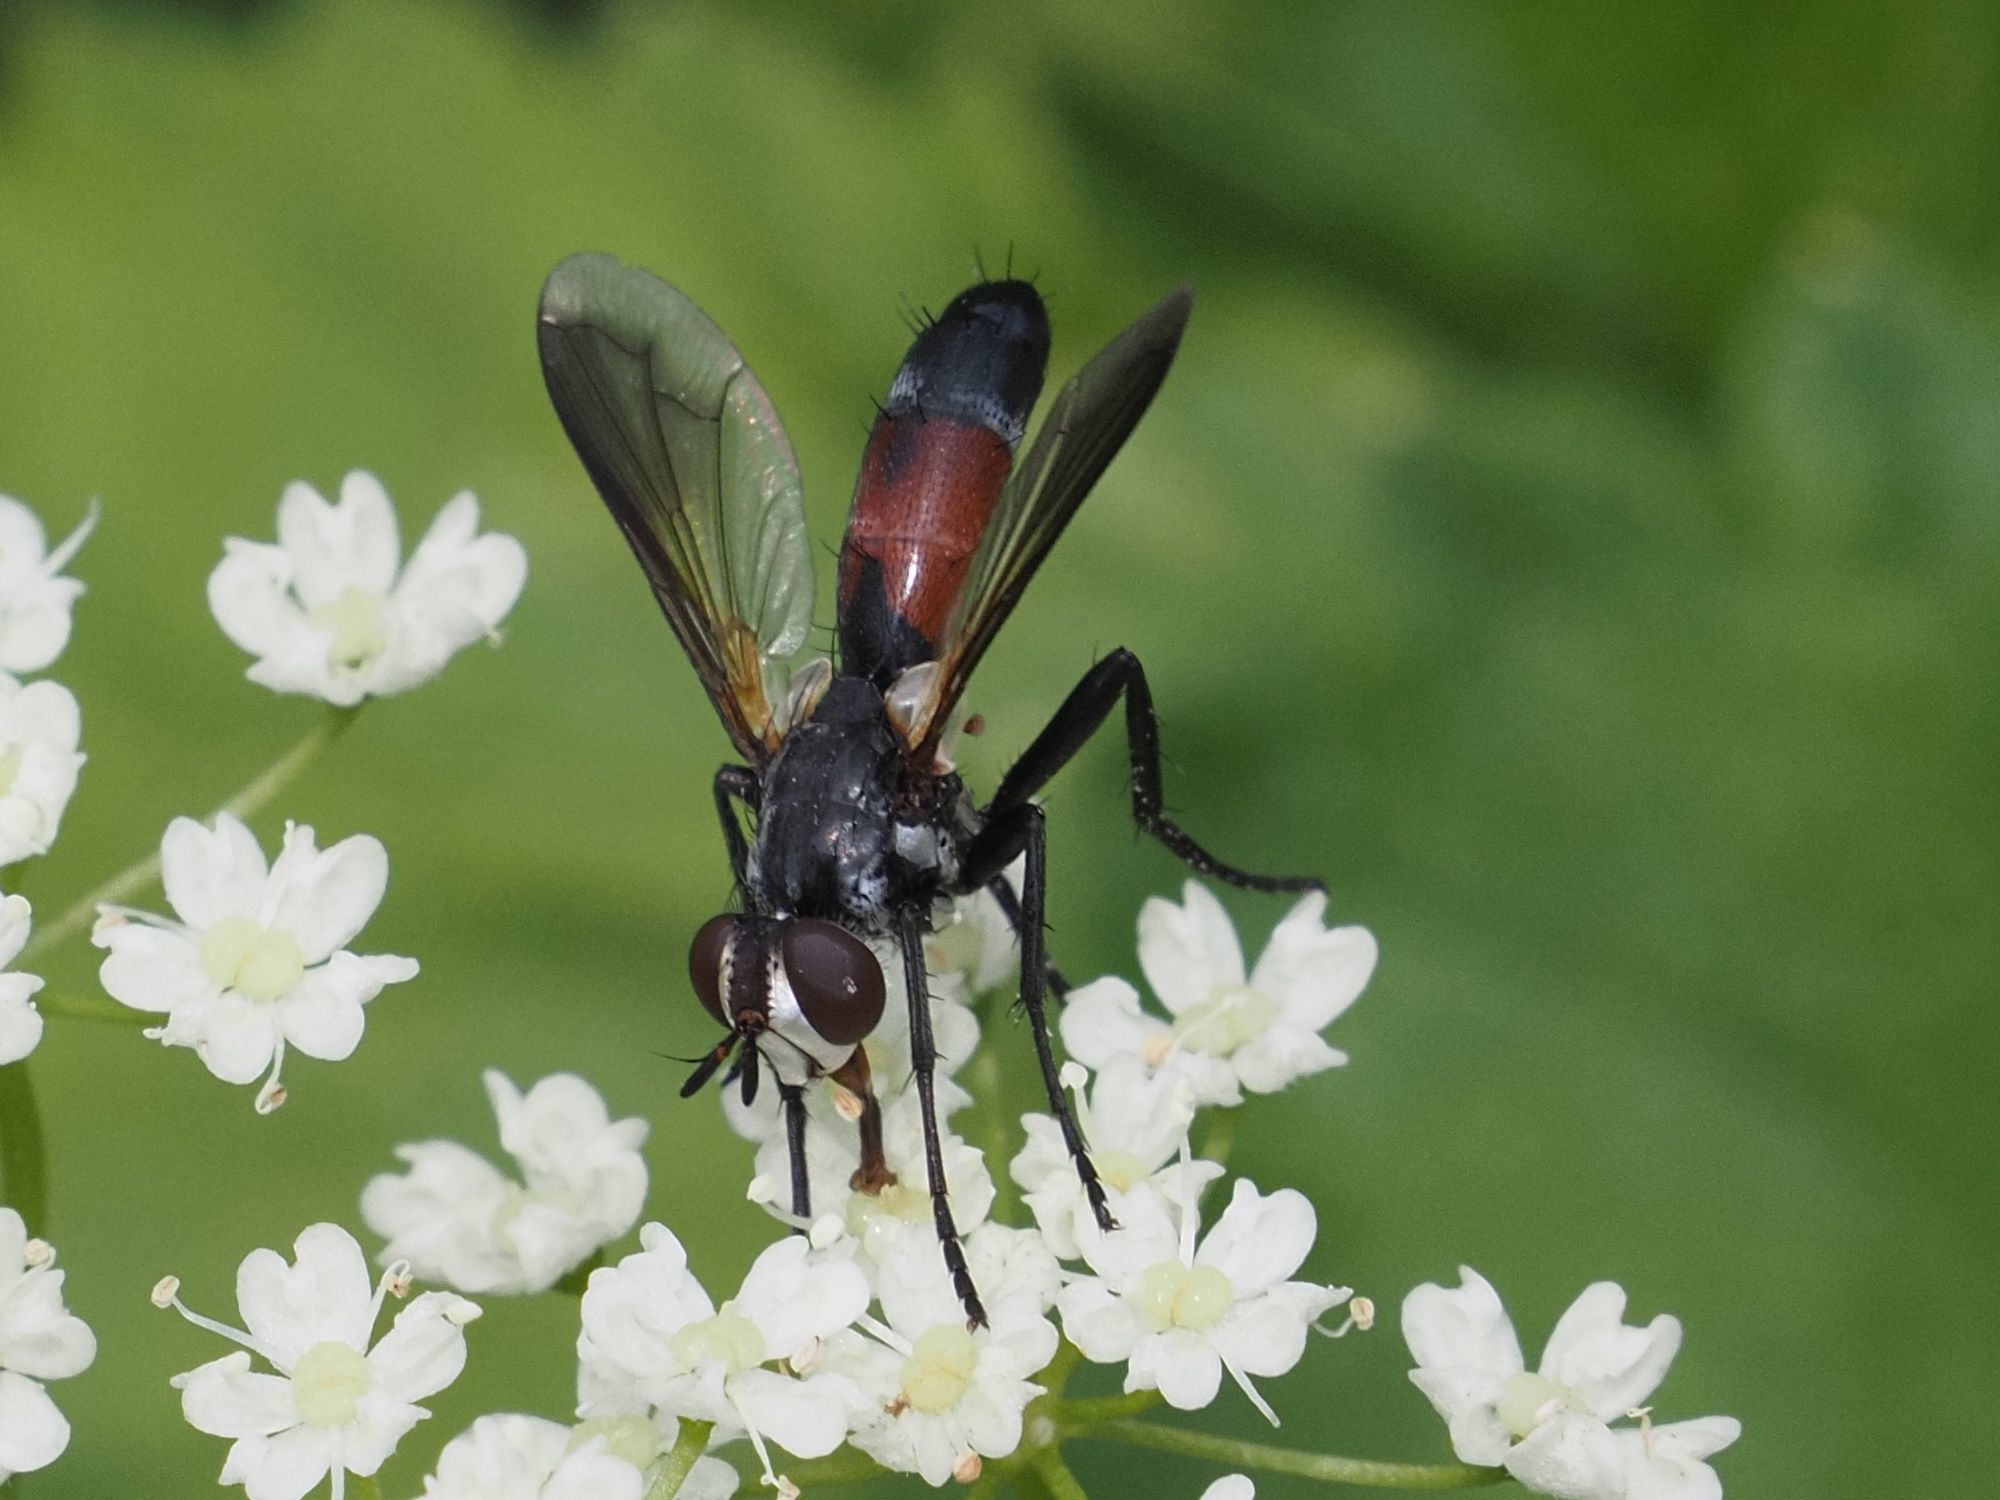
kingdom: Animalia
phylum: Arthropoda
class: Insecta
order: Diptera
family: Tachinidae
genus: Cylindromyia
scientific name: Cylindromyia interrupta
